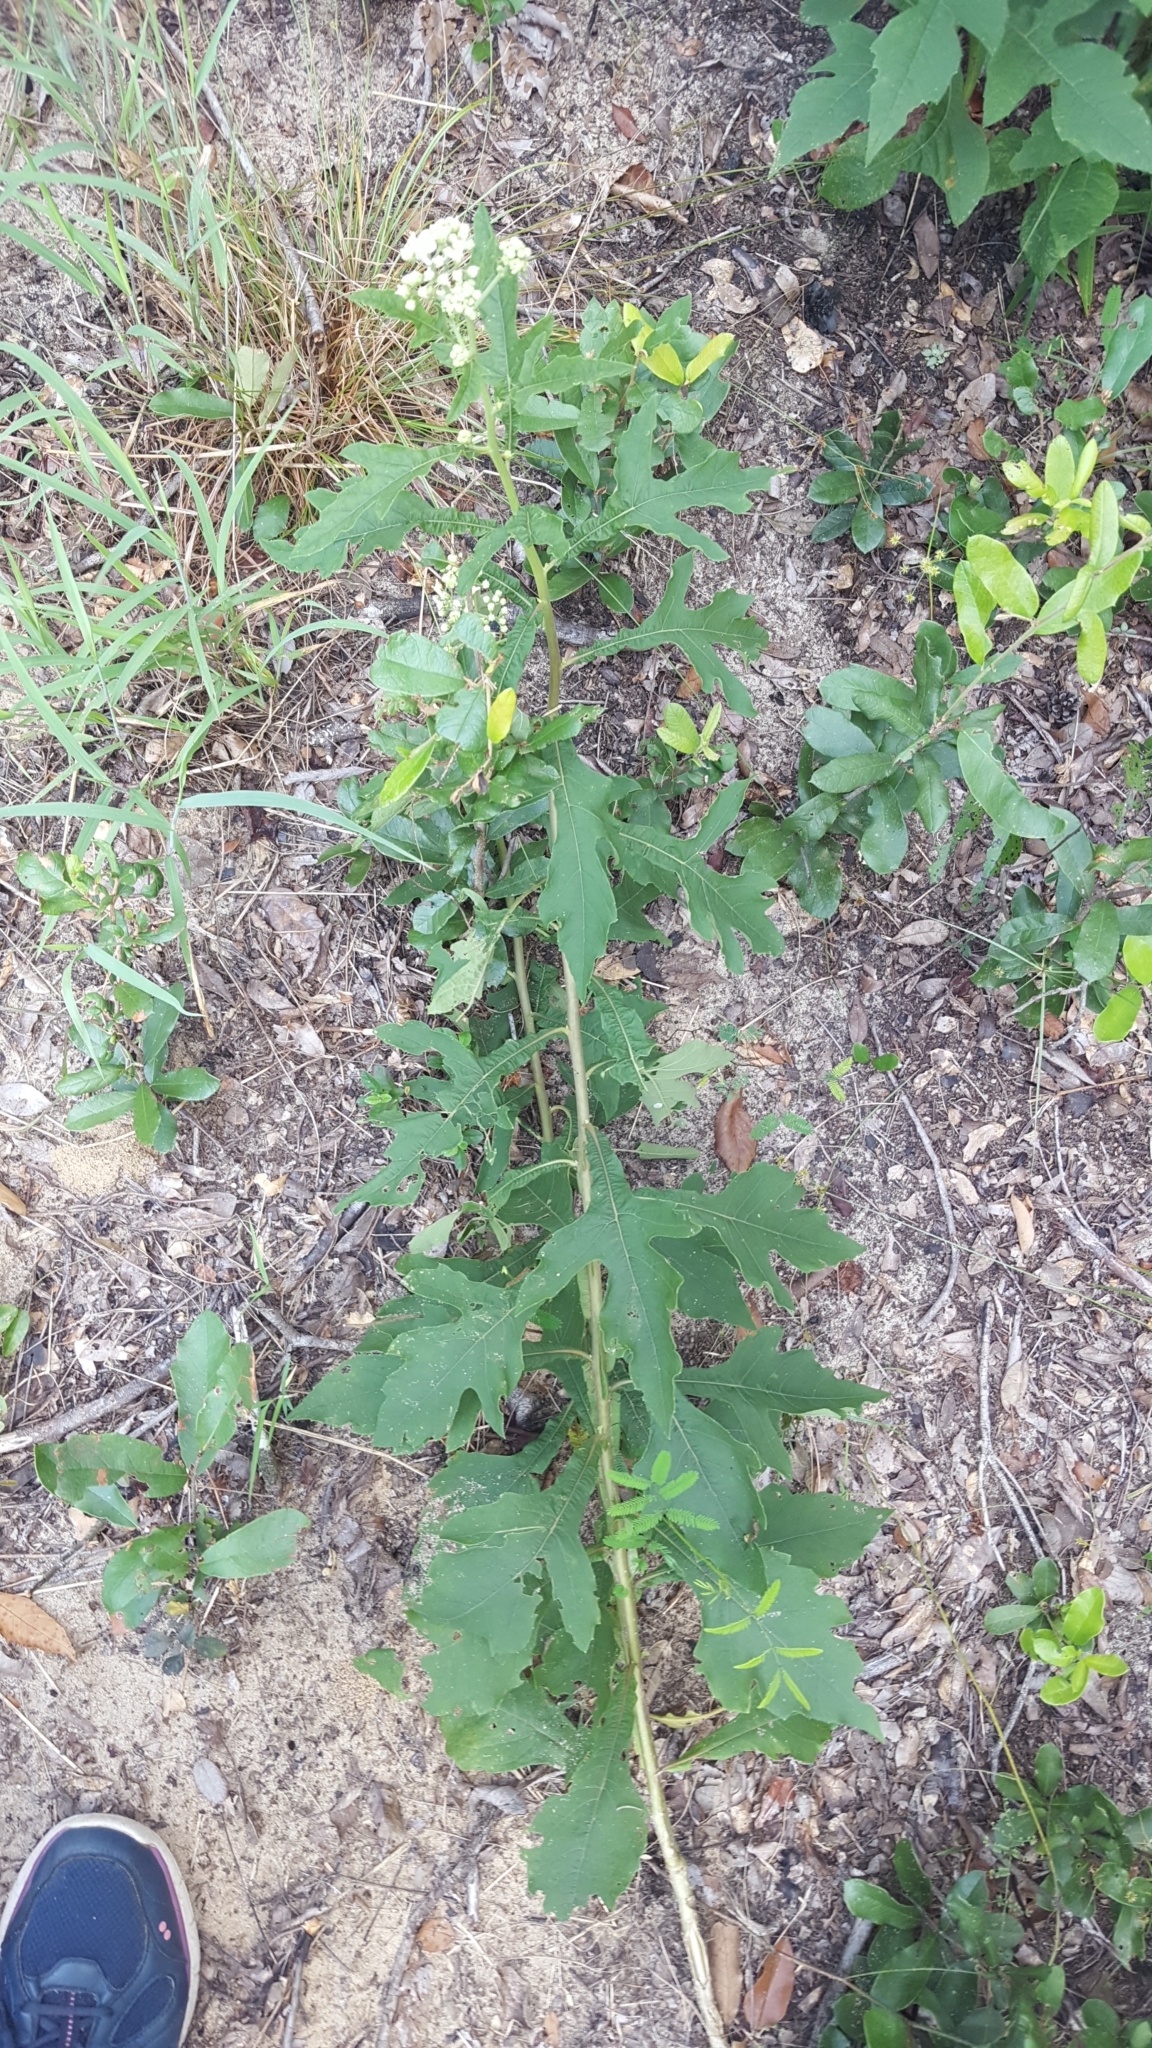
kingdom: Plantae
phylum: Tracheophyta
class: Magnoliopsida
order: Asterales
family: Asteraceae
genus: Verbesina
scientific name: Verbesina virginica
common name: Frostweed
